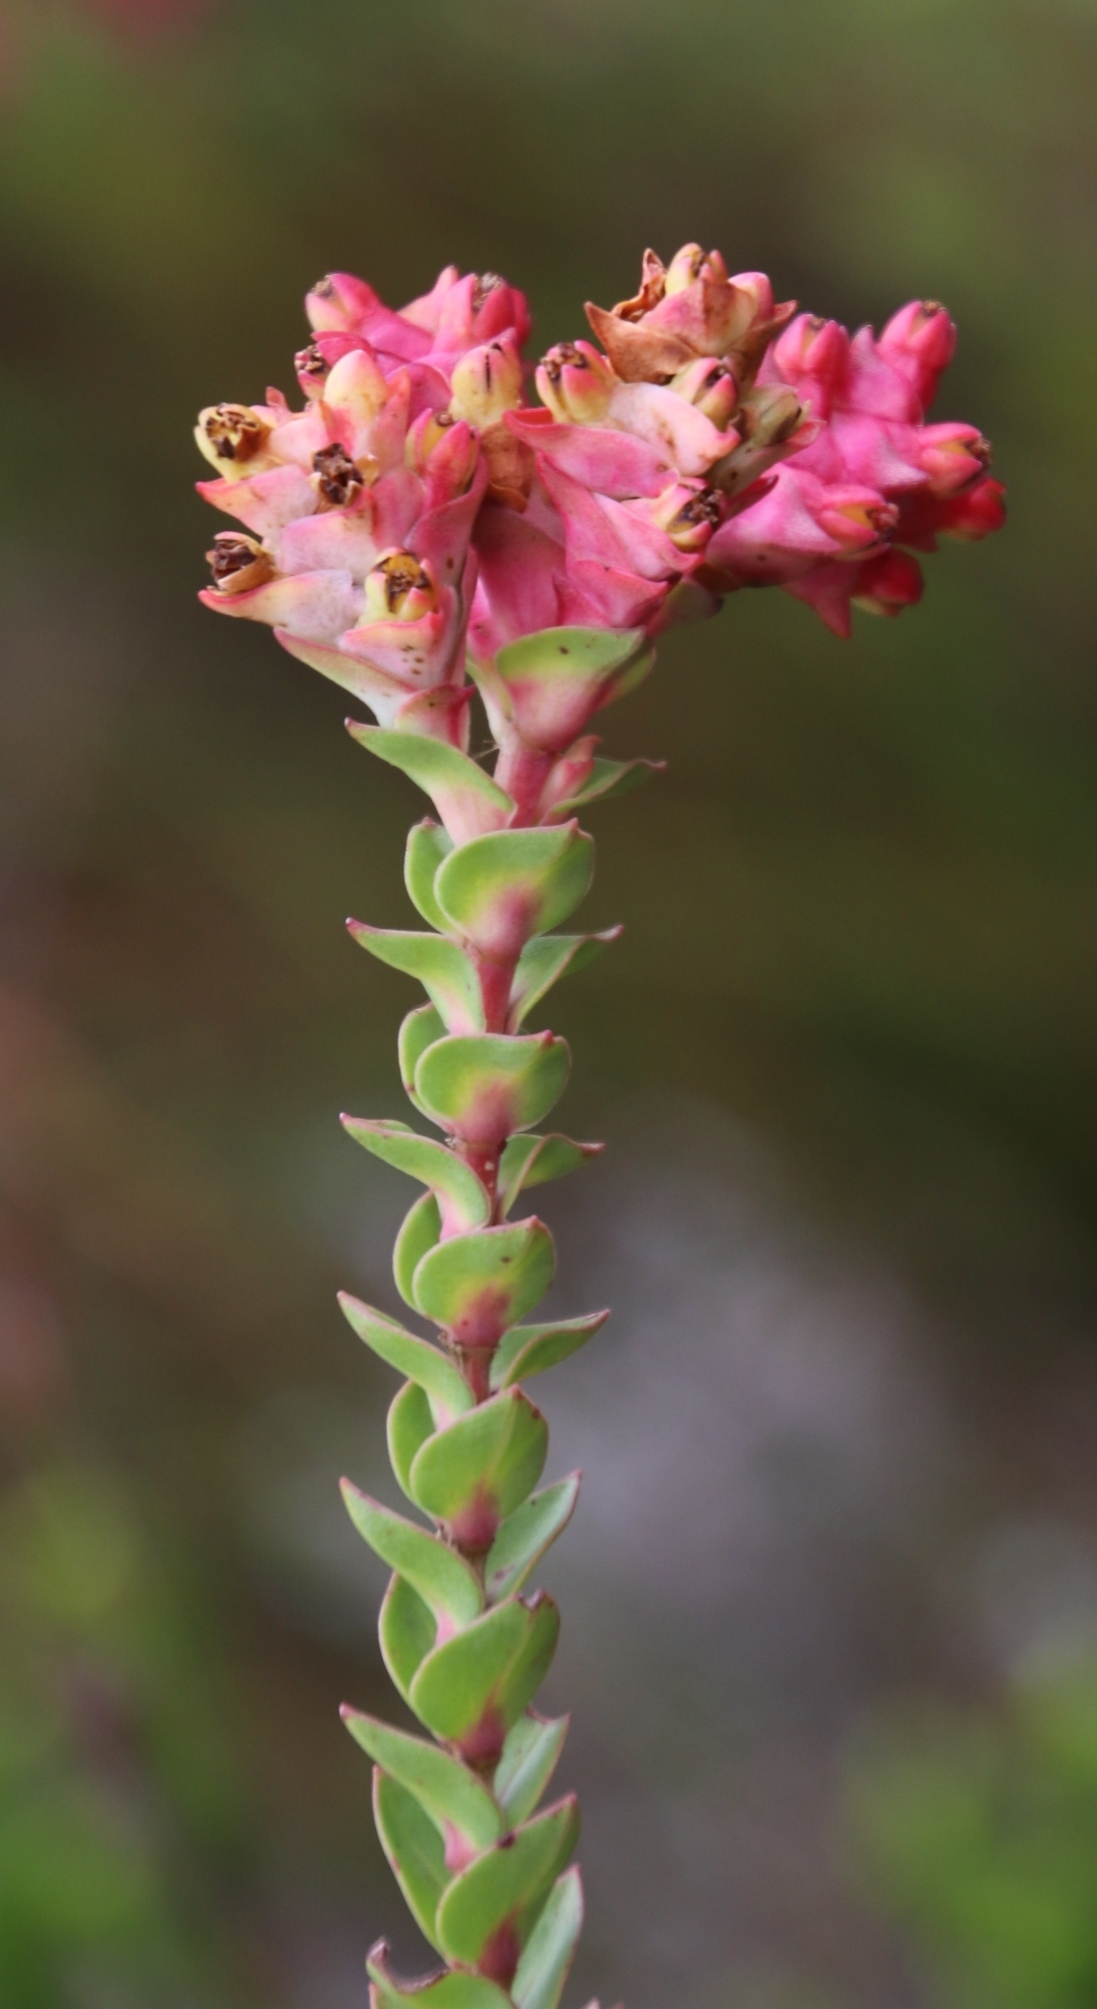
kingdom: Plantae
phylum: Tracheophyta
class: Magnoliopsida
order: Myrtales
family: Penaeaceae
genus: Penaea
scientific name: Penaea cneorum
